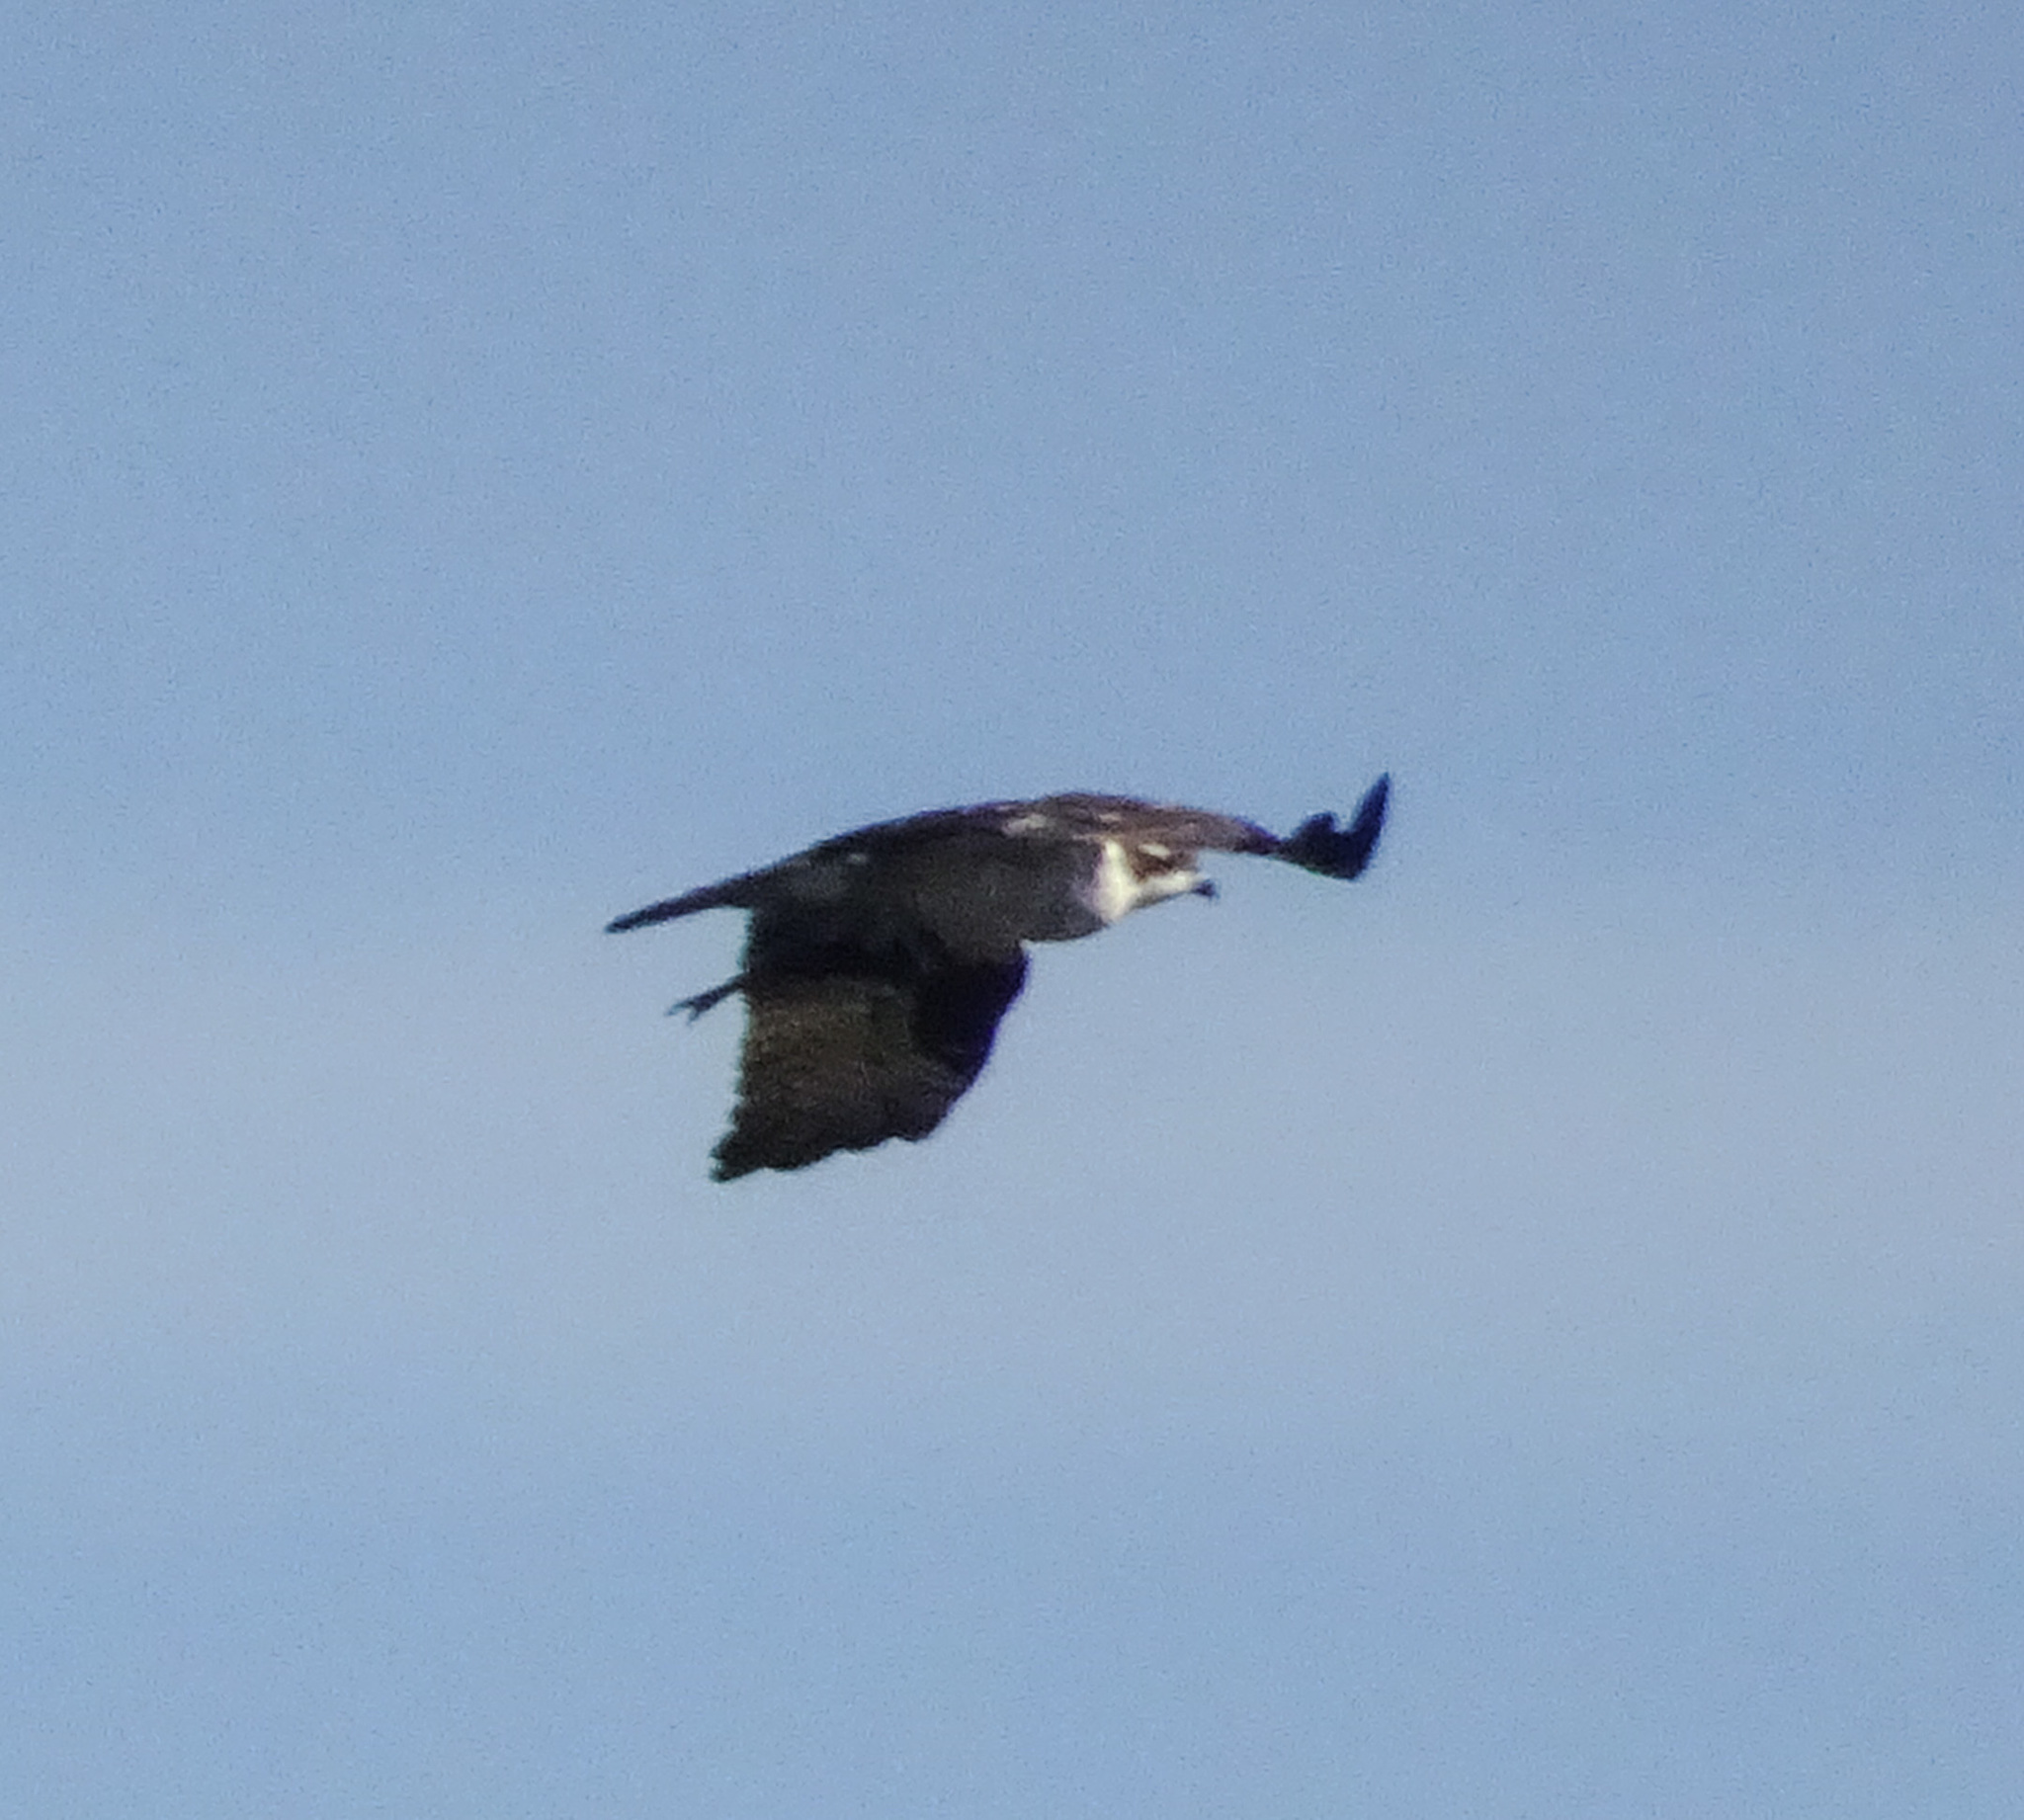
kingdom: Animalia
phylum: Chordata
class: Aves
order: Accipitriformes
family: Pandionidae
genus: Pandion
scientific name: Pandion haliaetus
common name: Osprey
